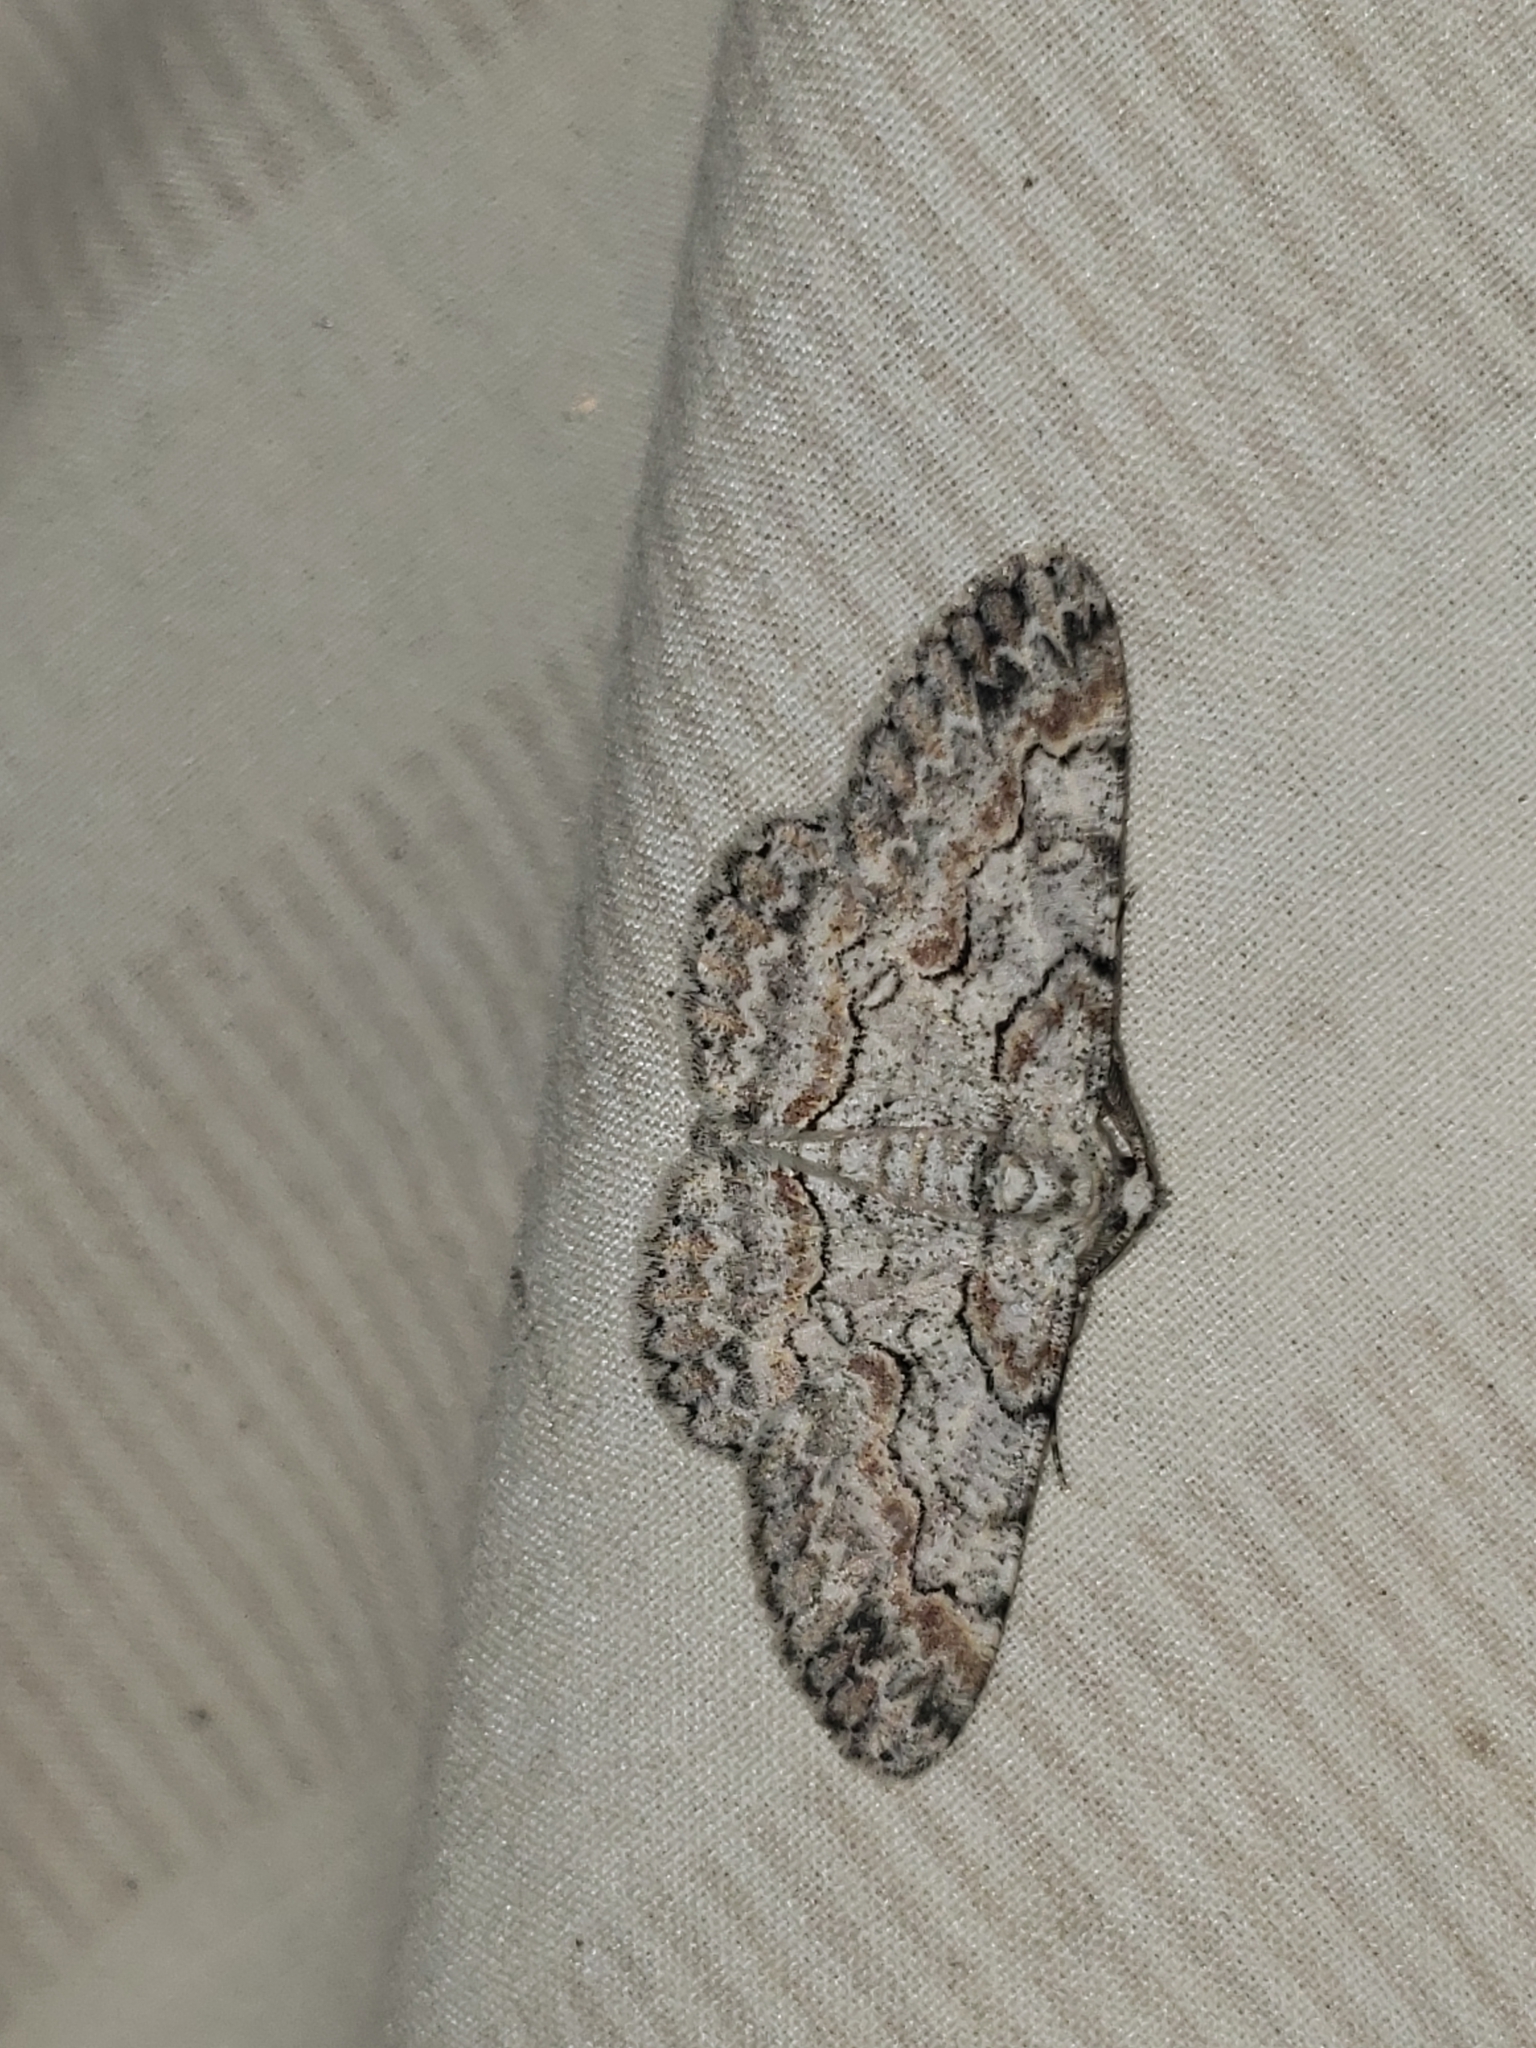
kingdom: Animalia
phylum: Arthropoda
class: Insecta
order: Lepidoptera
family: Geometridae
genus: Iridopsis
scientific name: Iridopsis defectaria
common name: Brown-shaded gray
